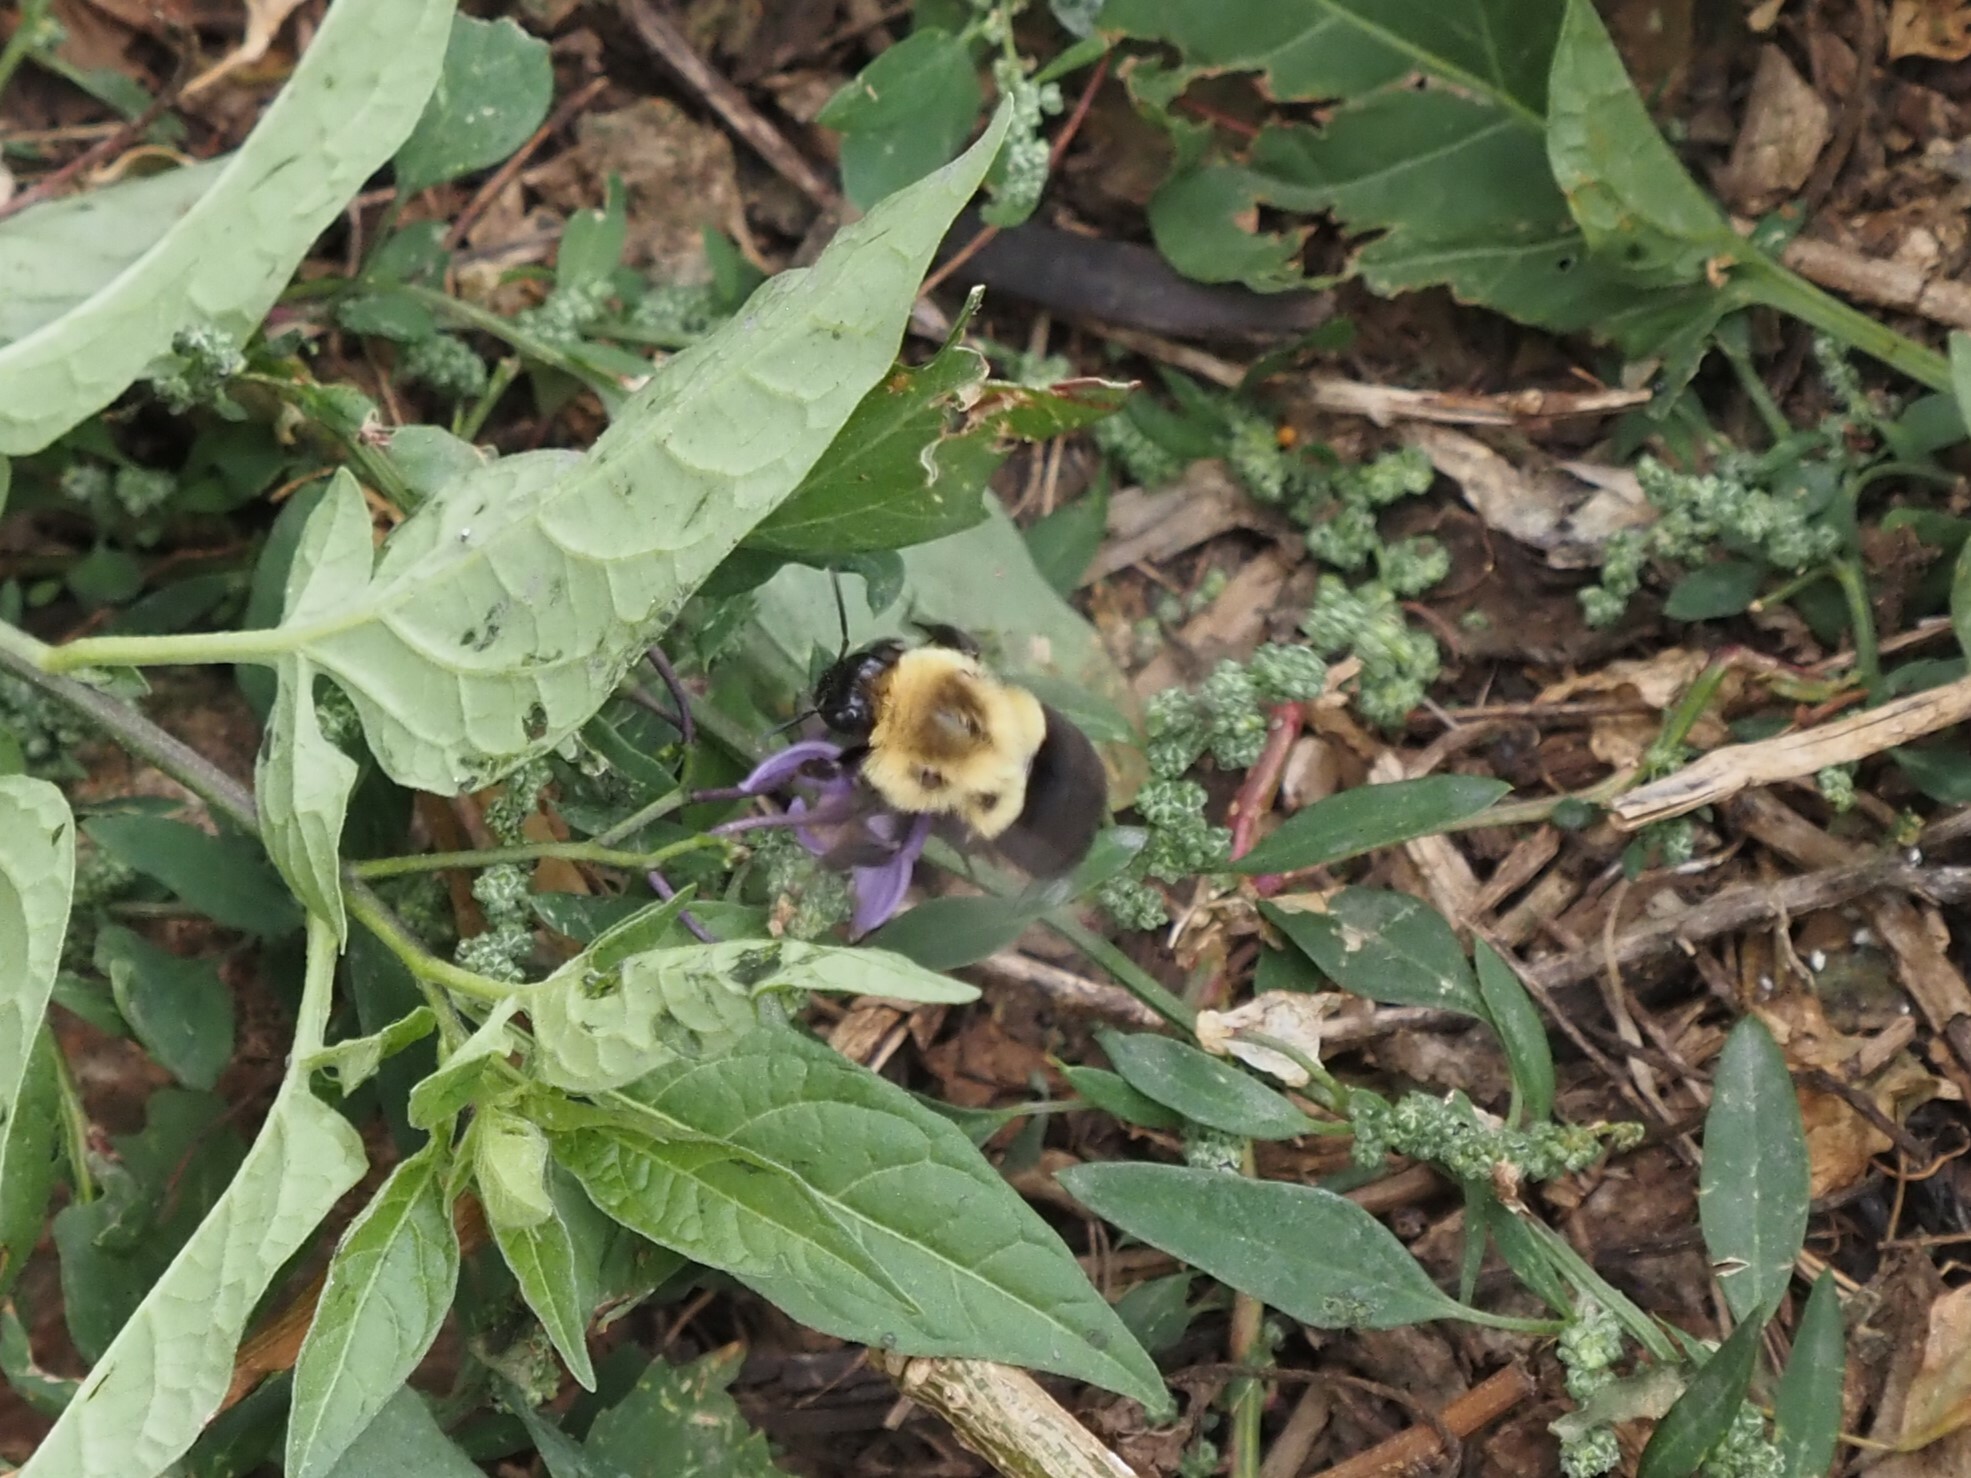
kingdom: Animalia
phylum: Arthropoda
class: Insecta
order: Hymenoptera
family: Apidae
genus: Bombus
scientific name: Bombus impatiens
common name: Common eastern bumble bee
